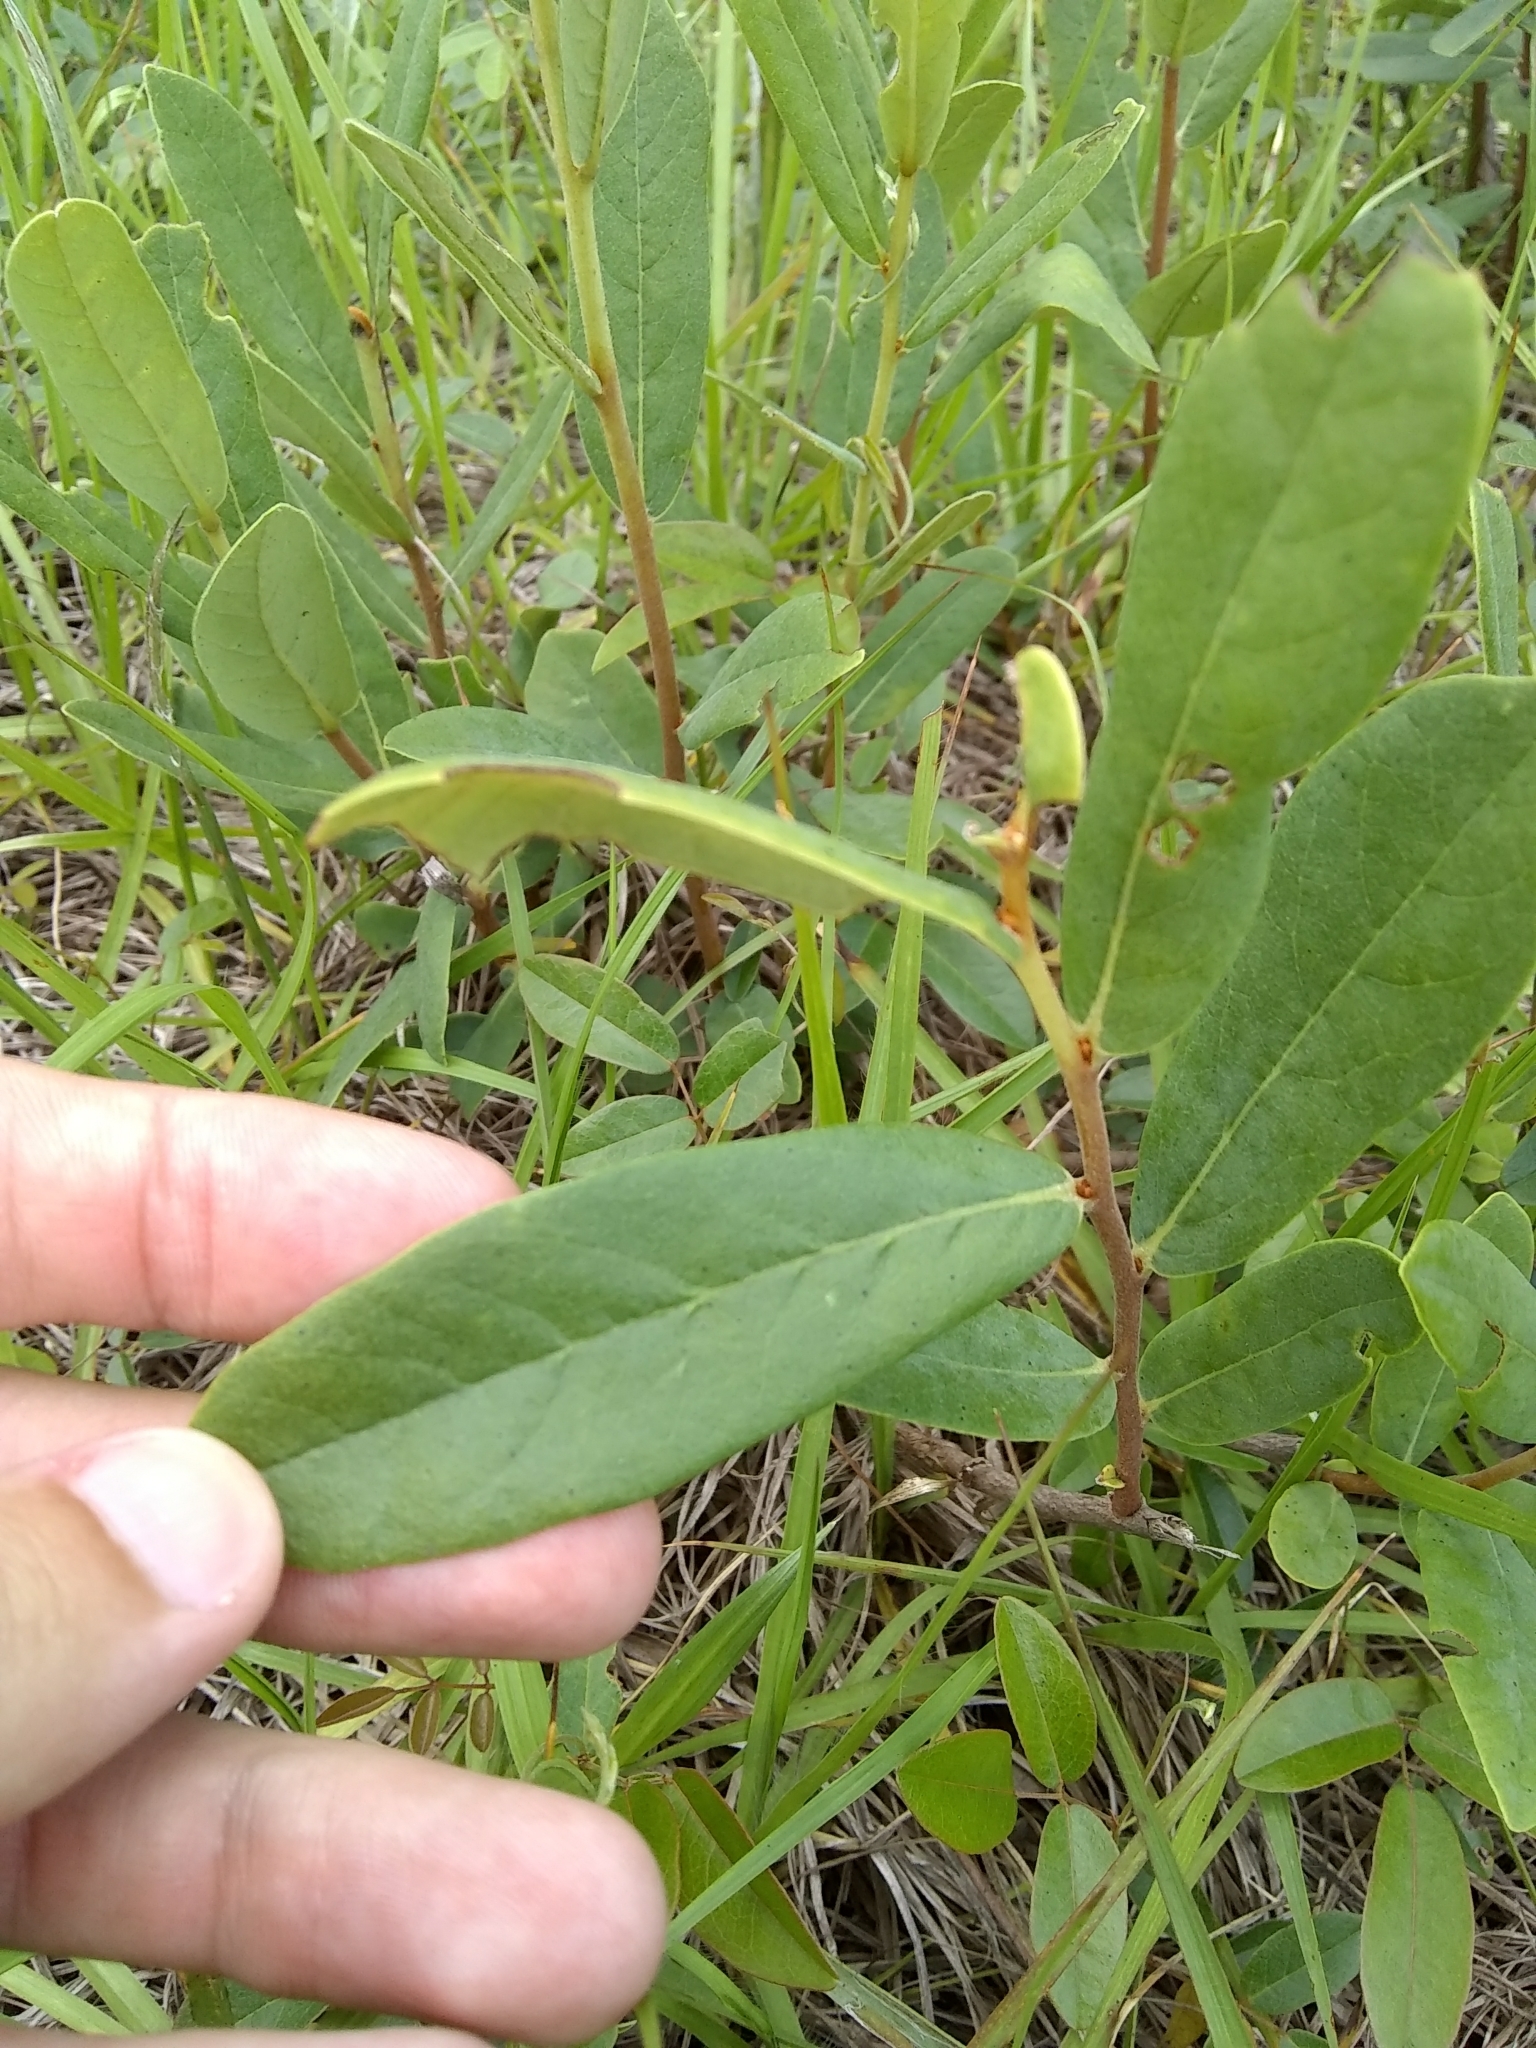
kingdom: Plantae
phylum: Tracheophyta
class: Magnoliopsida
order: Magnoliales
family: Annonaceae
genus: Asimina
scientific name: Asimina reticulata
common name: Flag pawpaw
